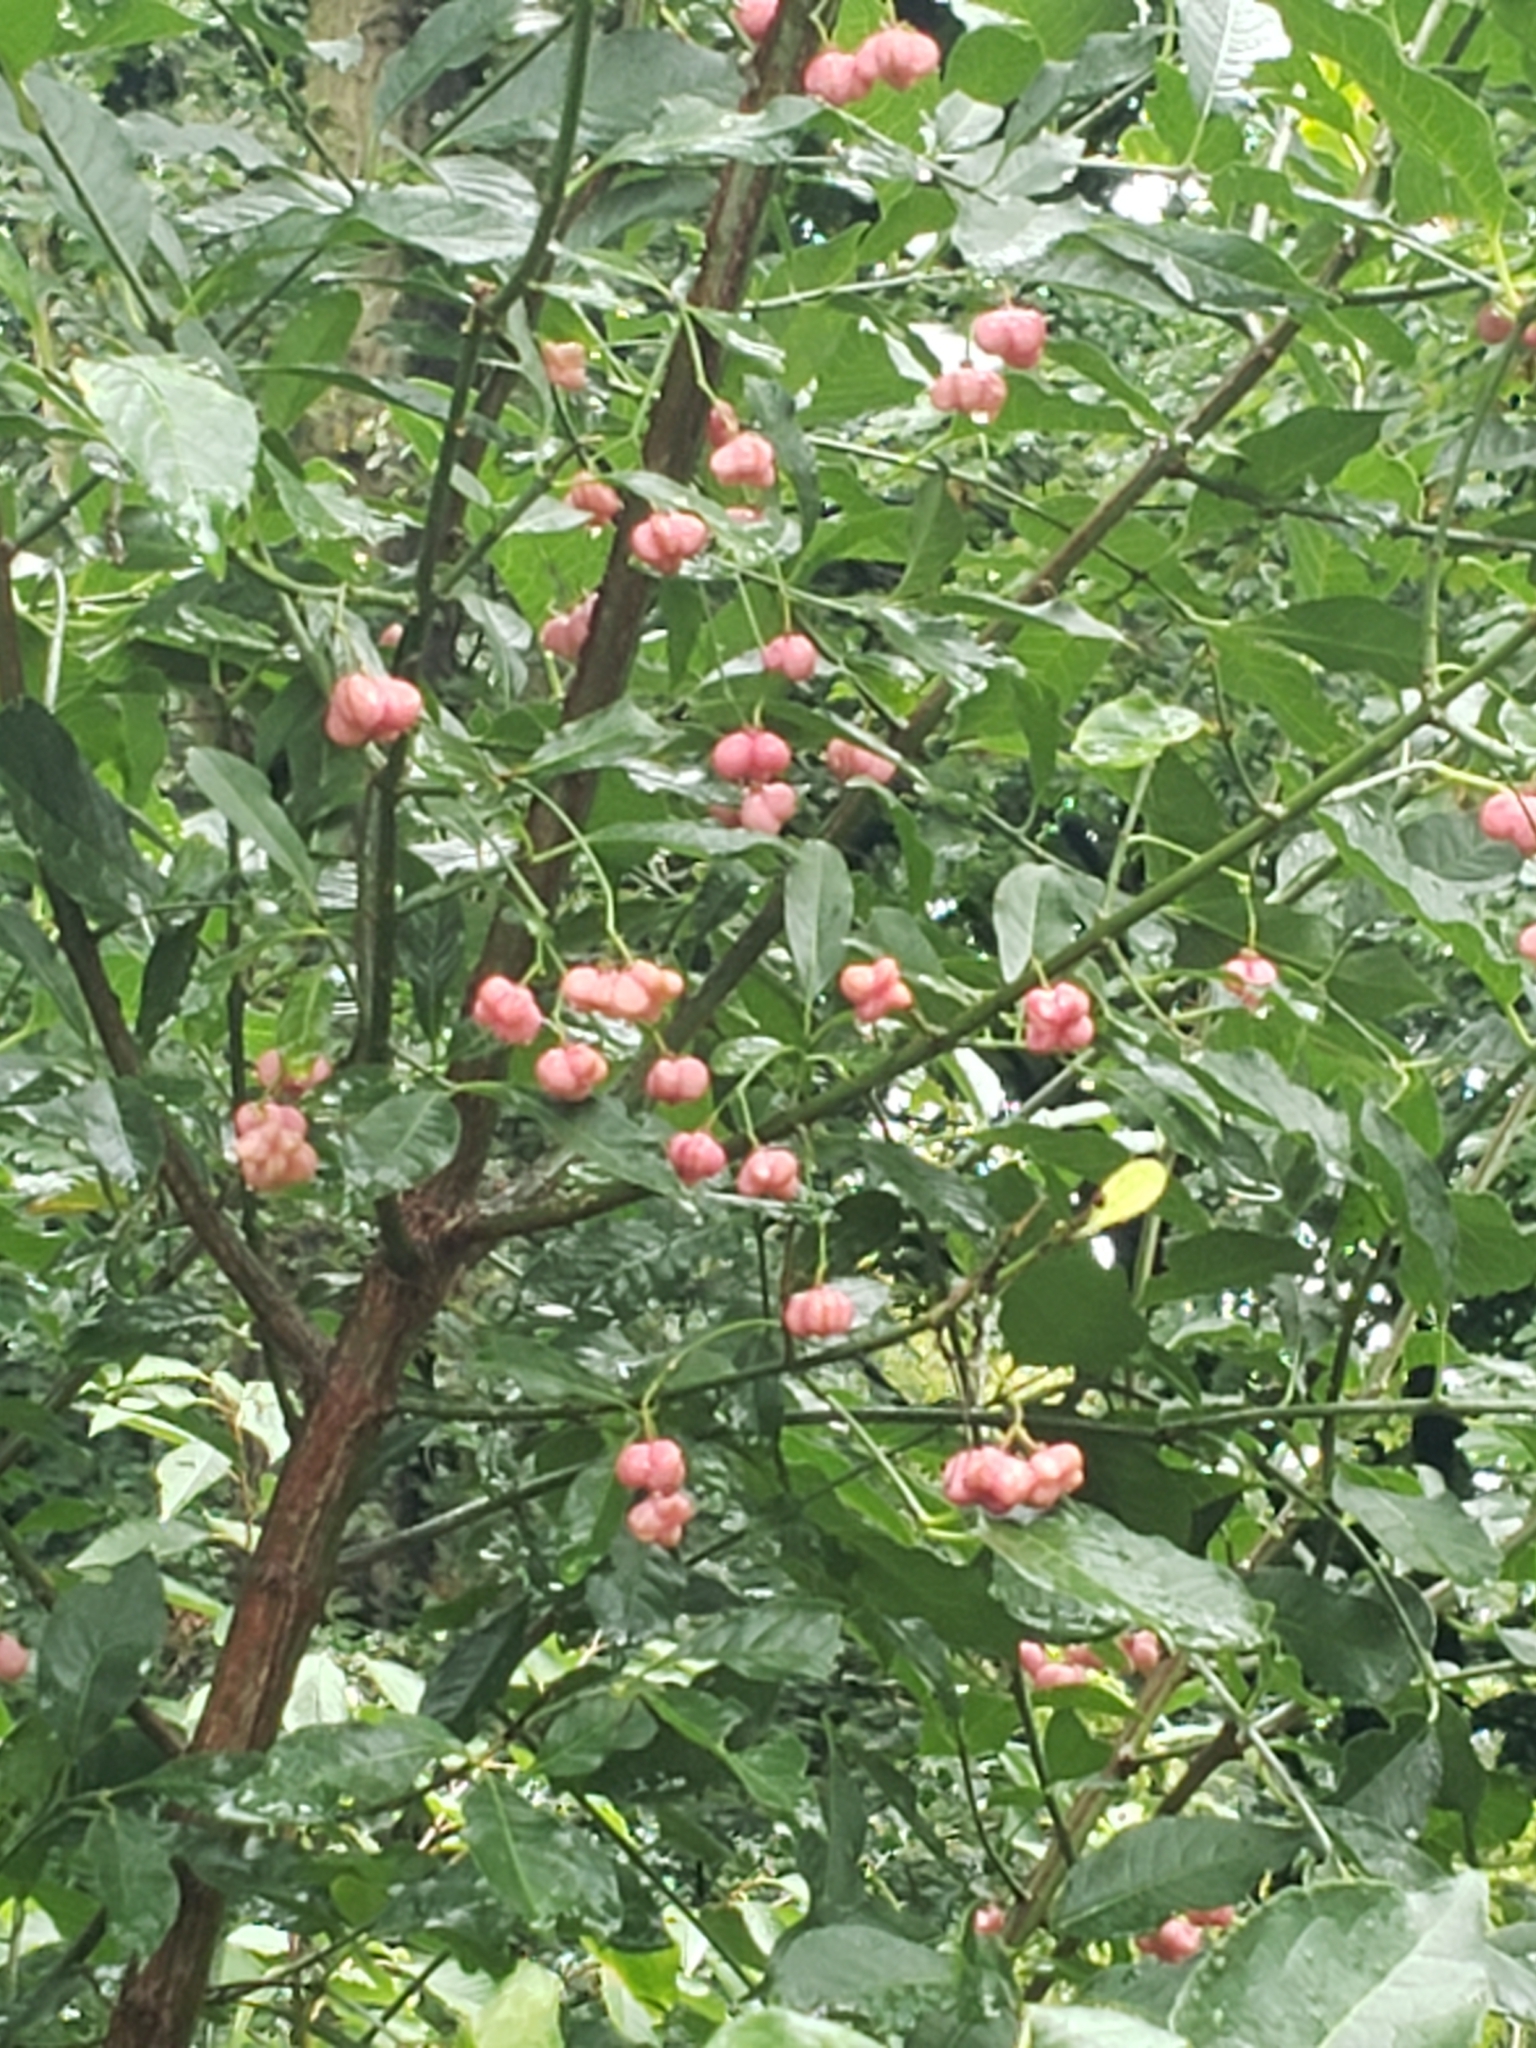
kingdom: Plantae
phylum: Tracheophyta
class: Magnoliopsida
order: Celastrales
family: Celastraceae
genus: Euonymus
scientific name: Euonymus europaeus
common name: Spindle
